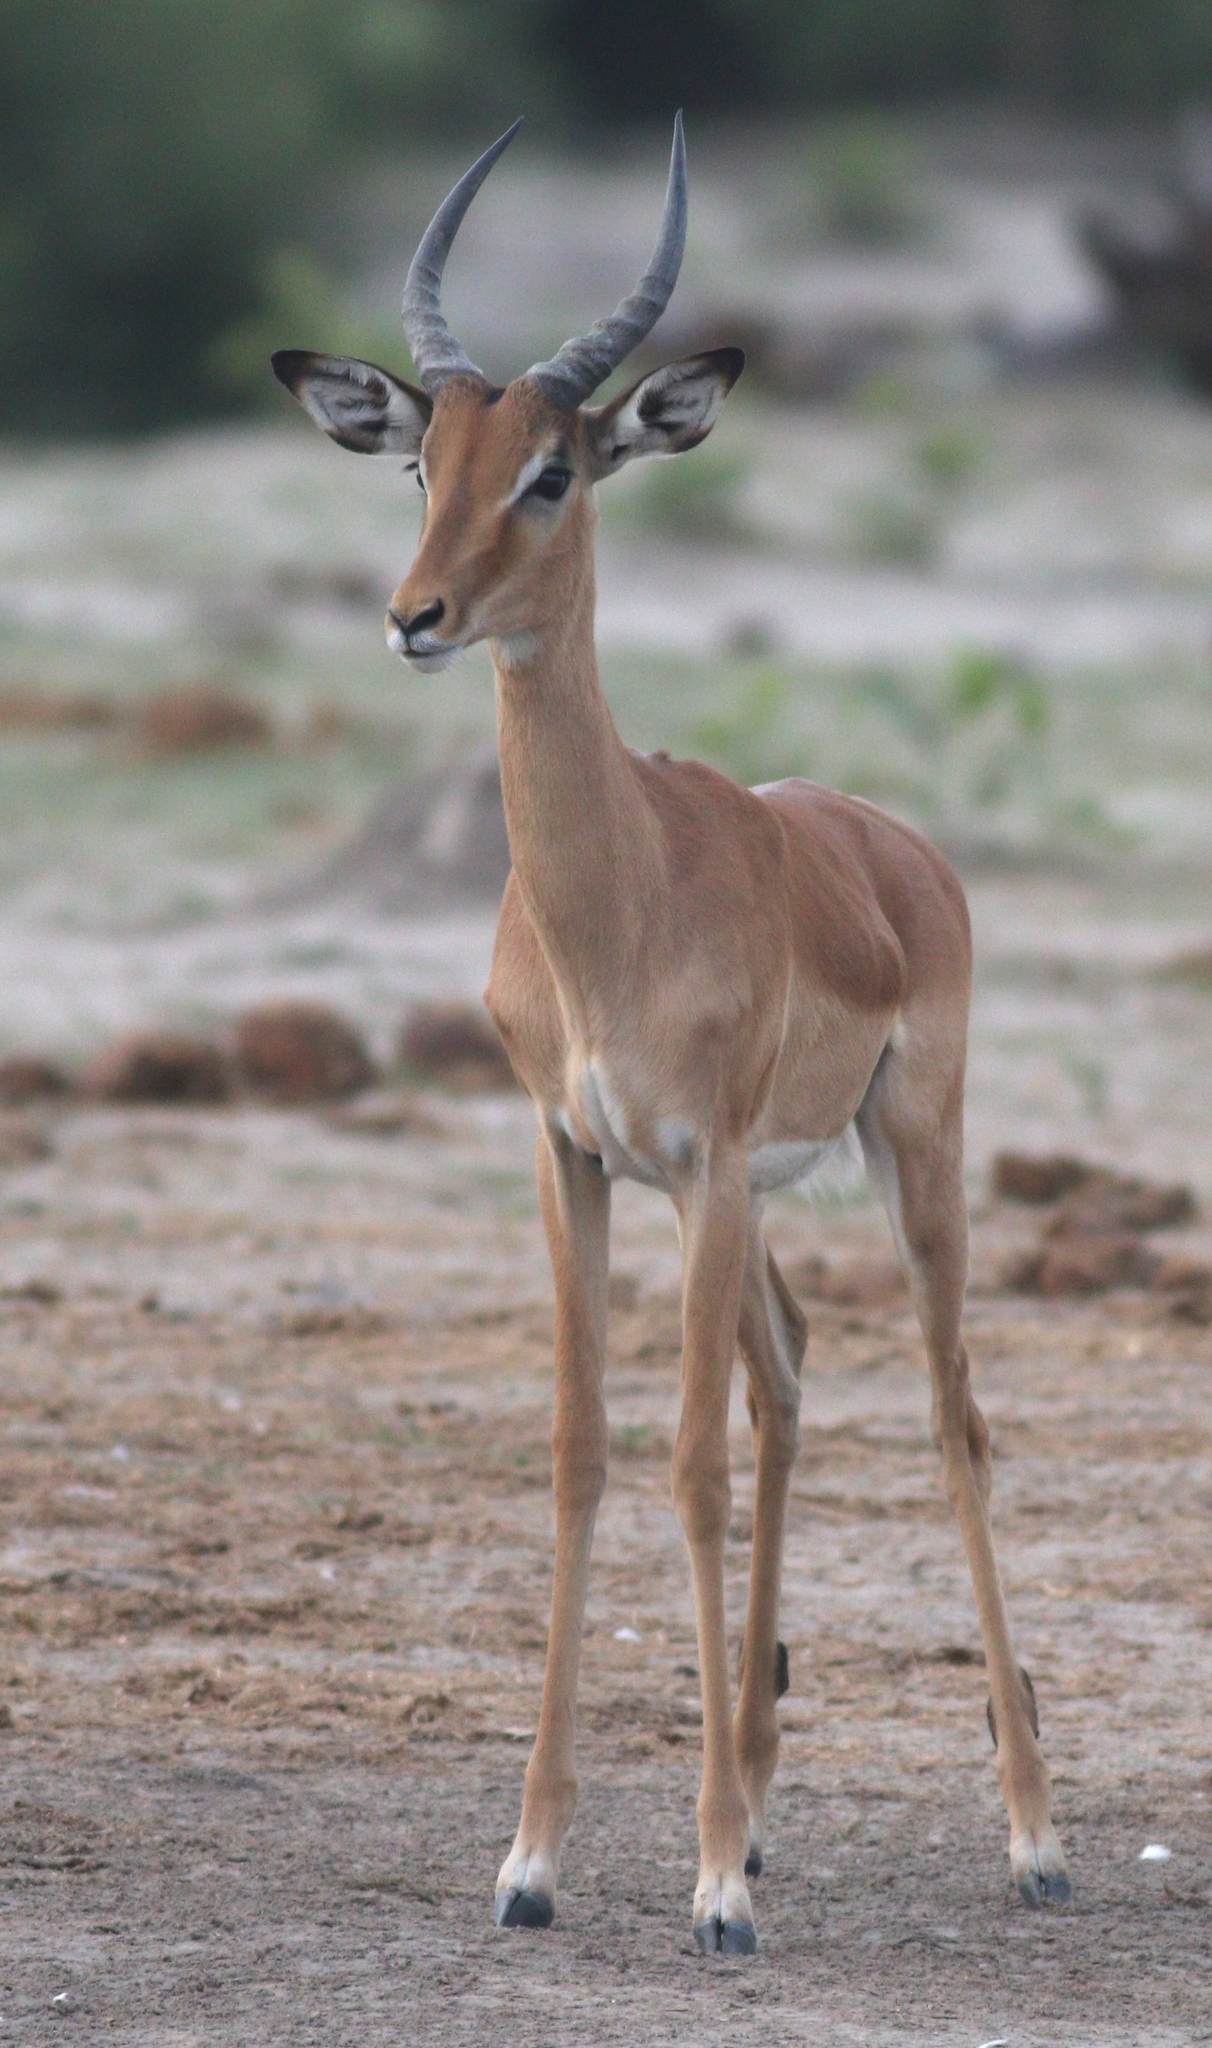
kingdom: Animalia
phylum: Chordata
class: Mammalia
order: Artiodactyla
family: Bovidae
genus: Aepyceros
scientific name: Aepyceros melampus
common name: Impala
